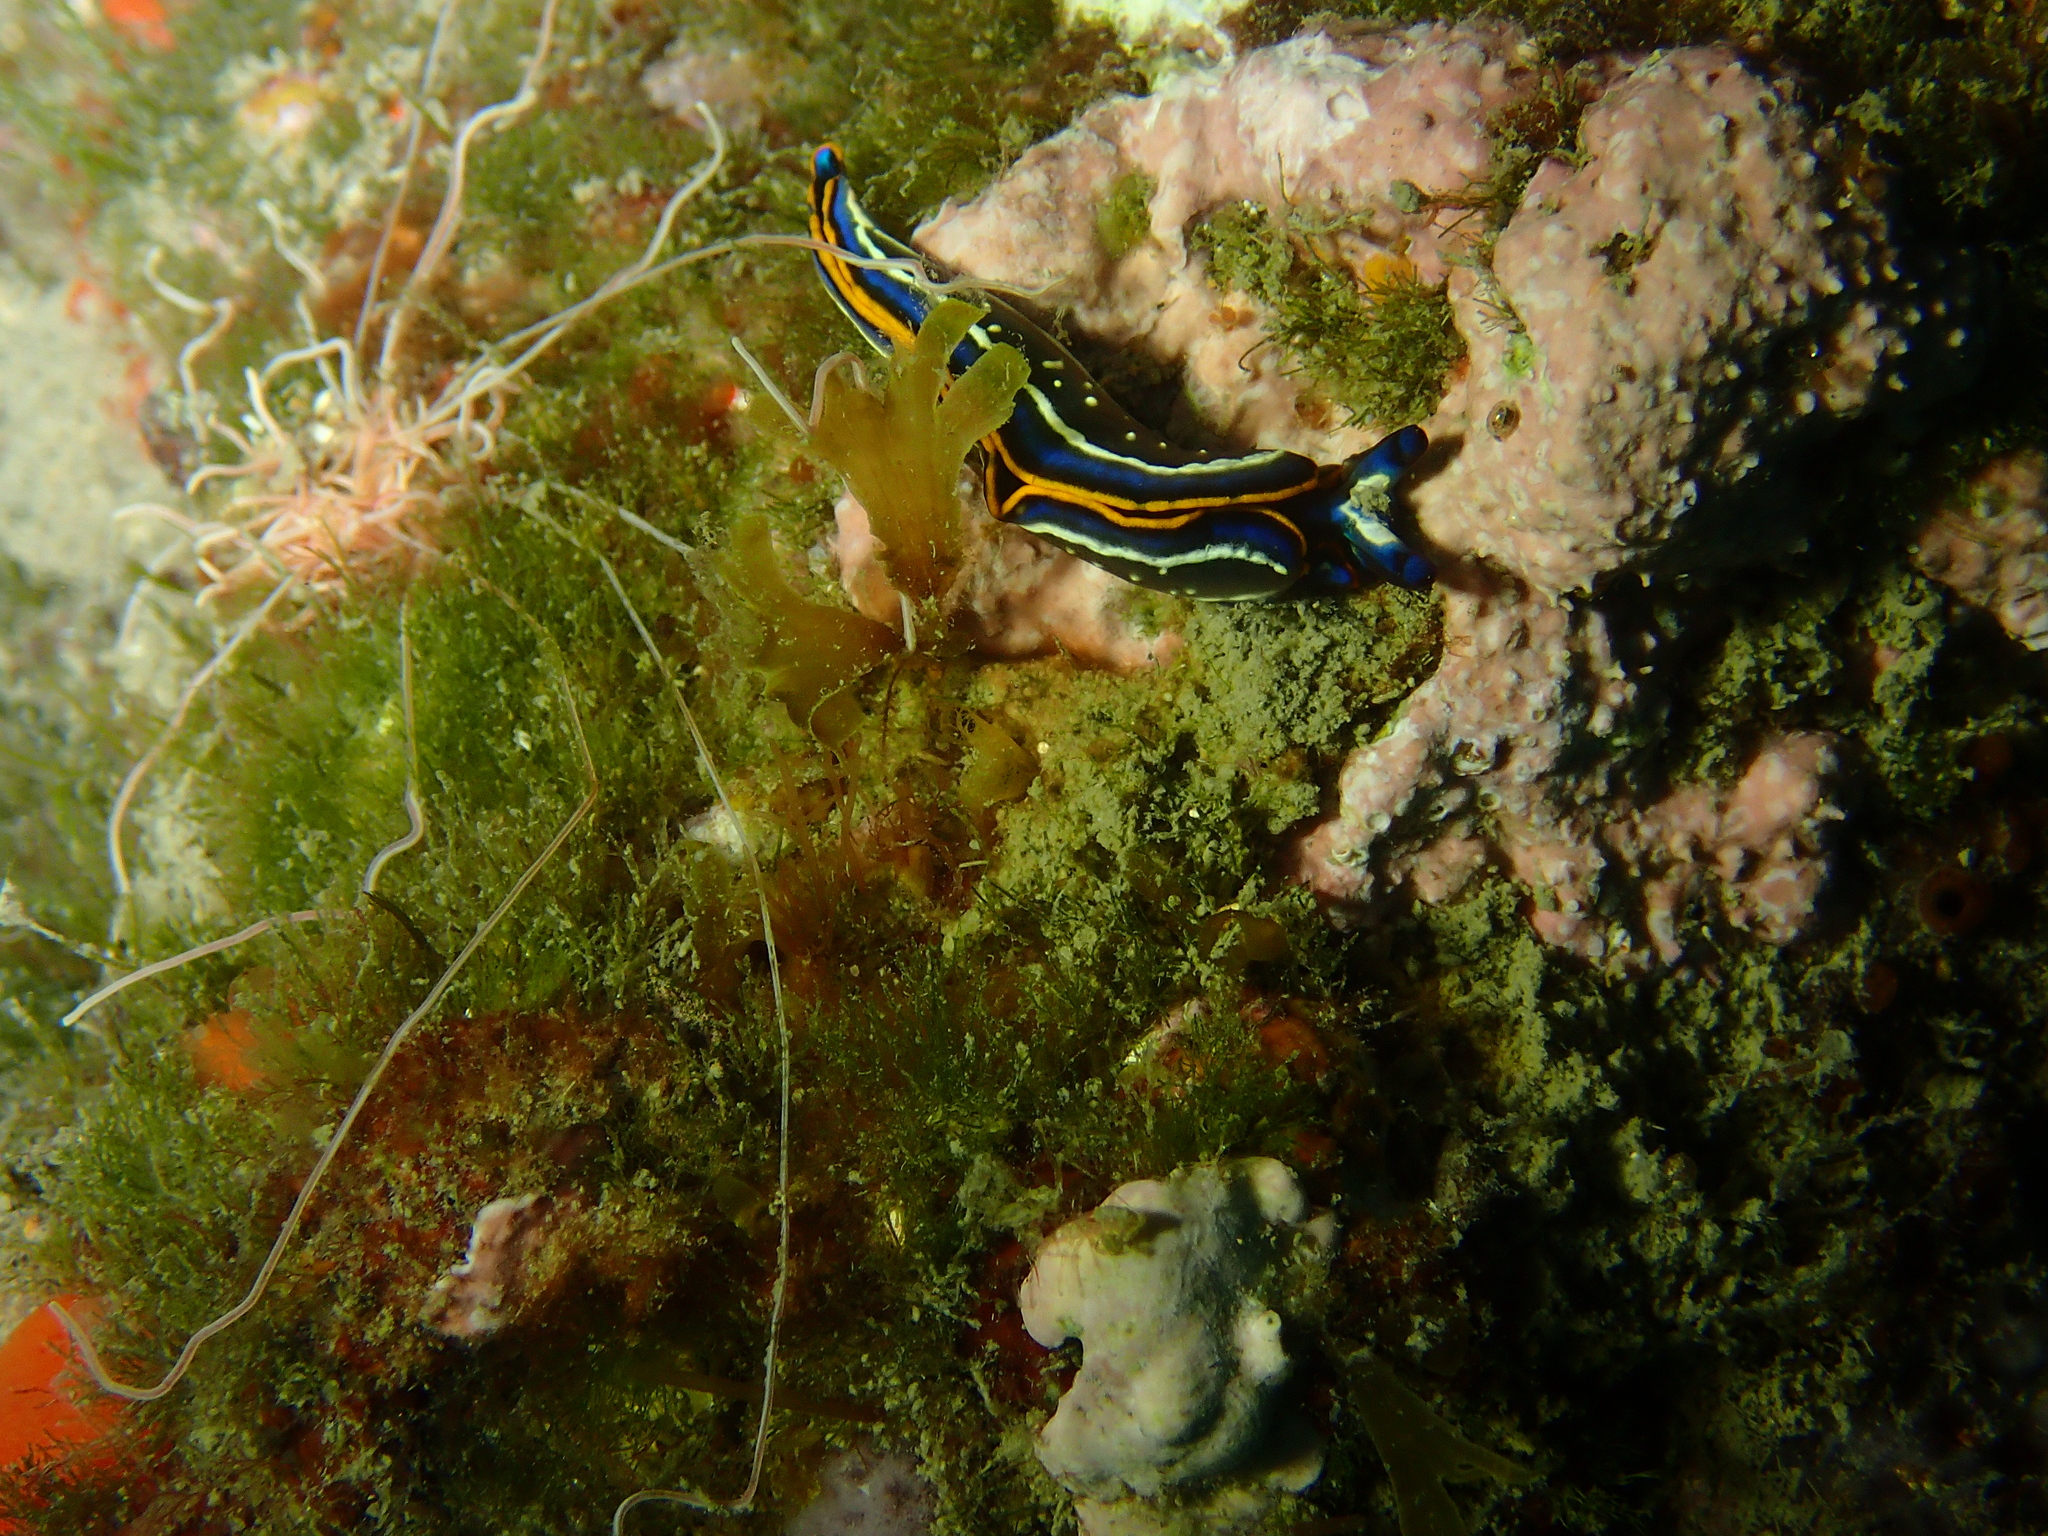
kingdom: Animalia
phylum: Mollusca
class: Gastropoda
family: Plakobranchidae
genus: Thuridilla
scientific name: Thuridilla hopei
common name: Splendid elysia
